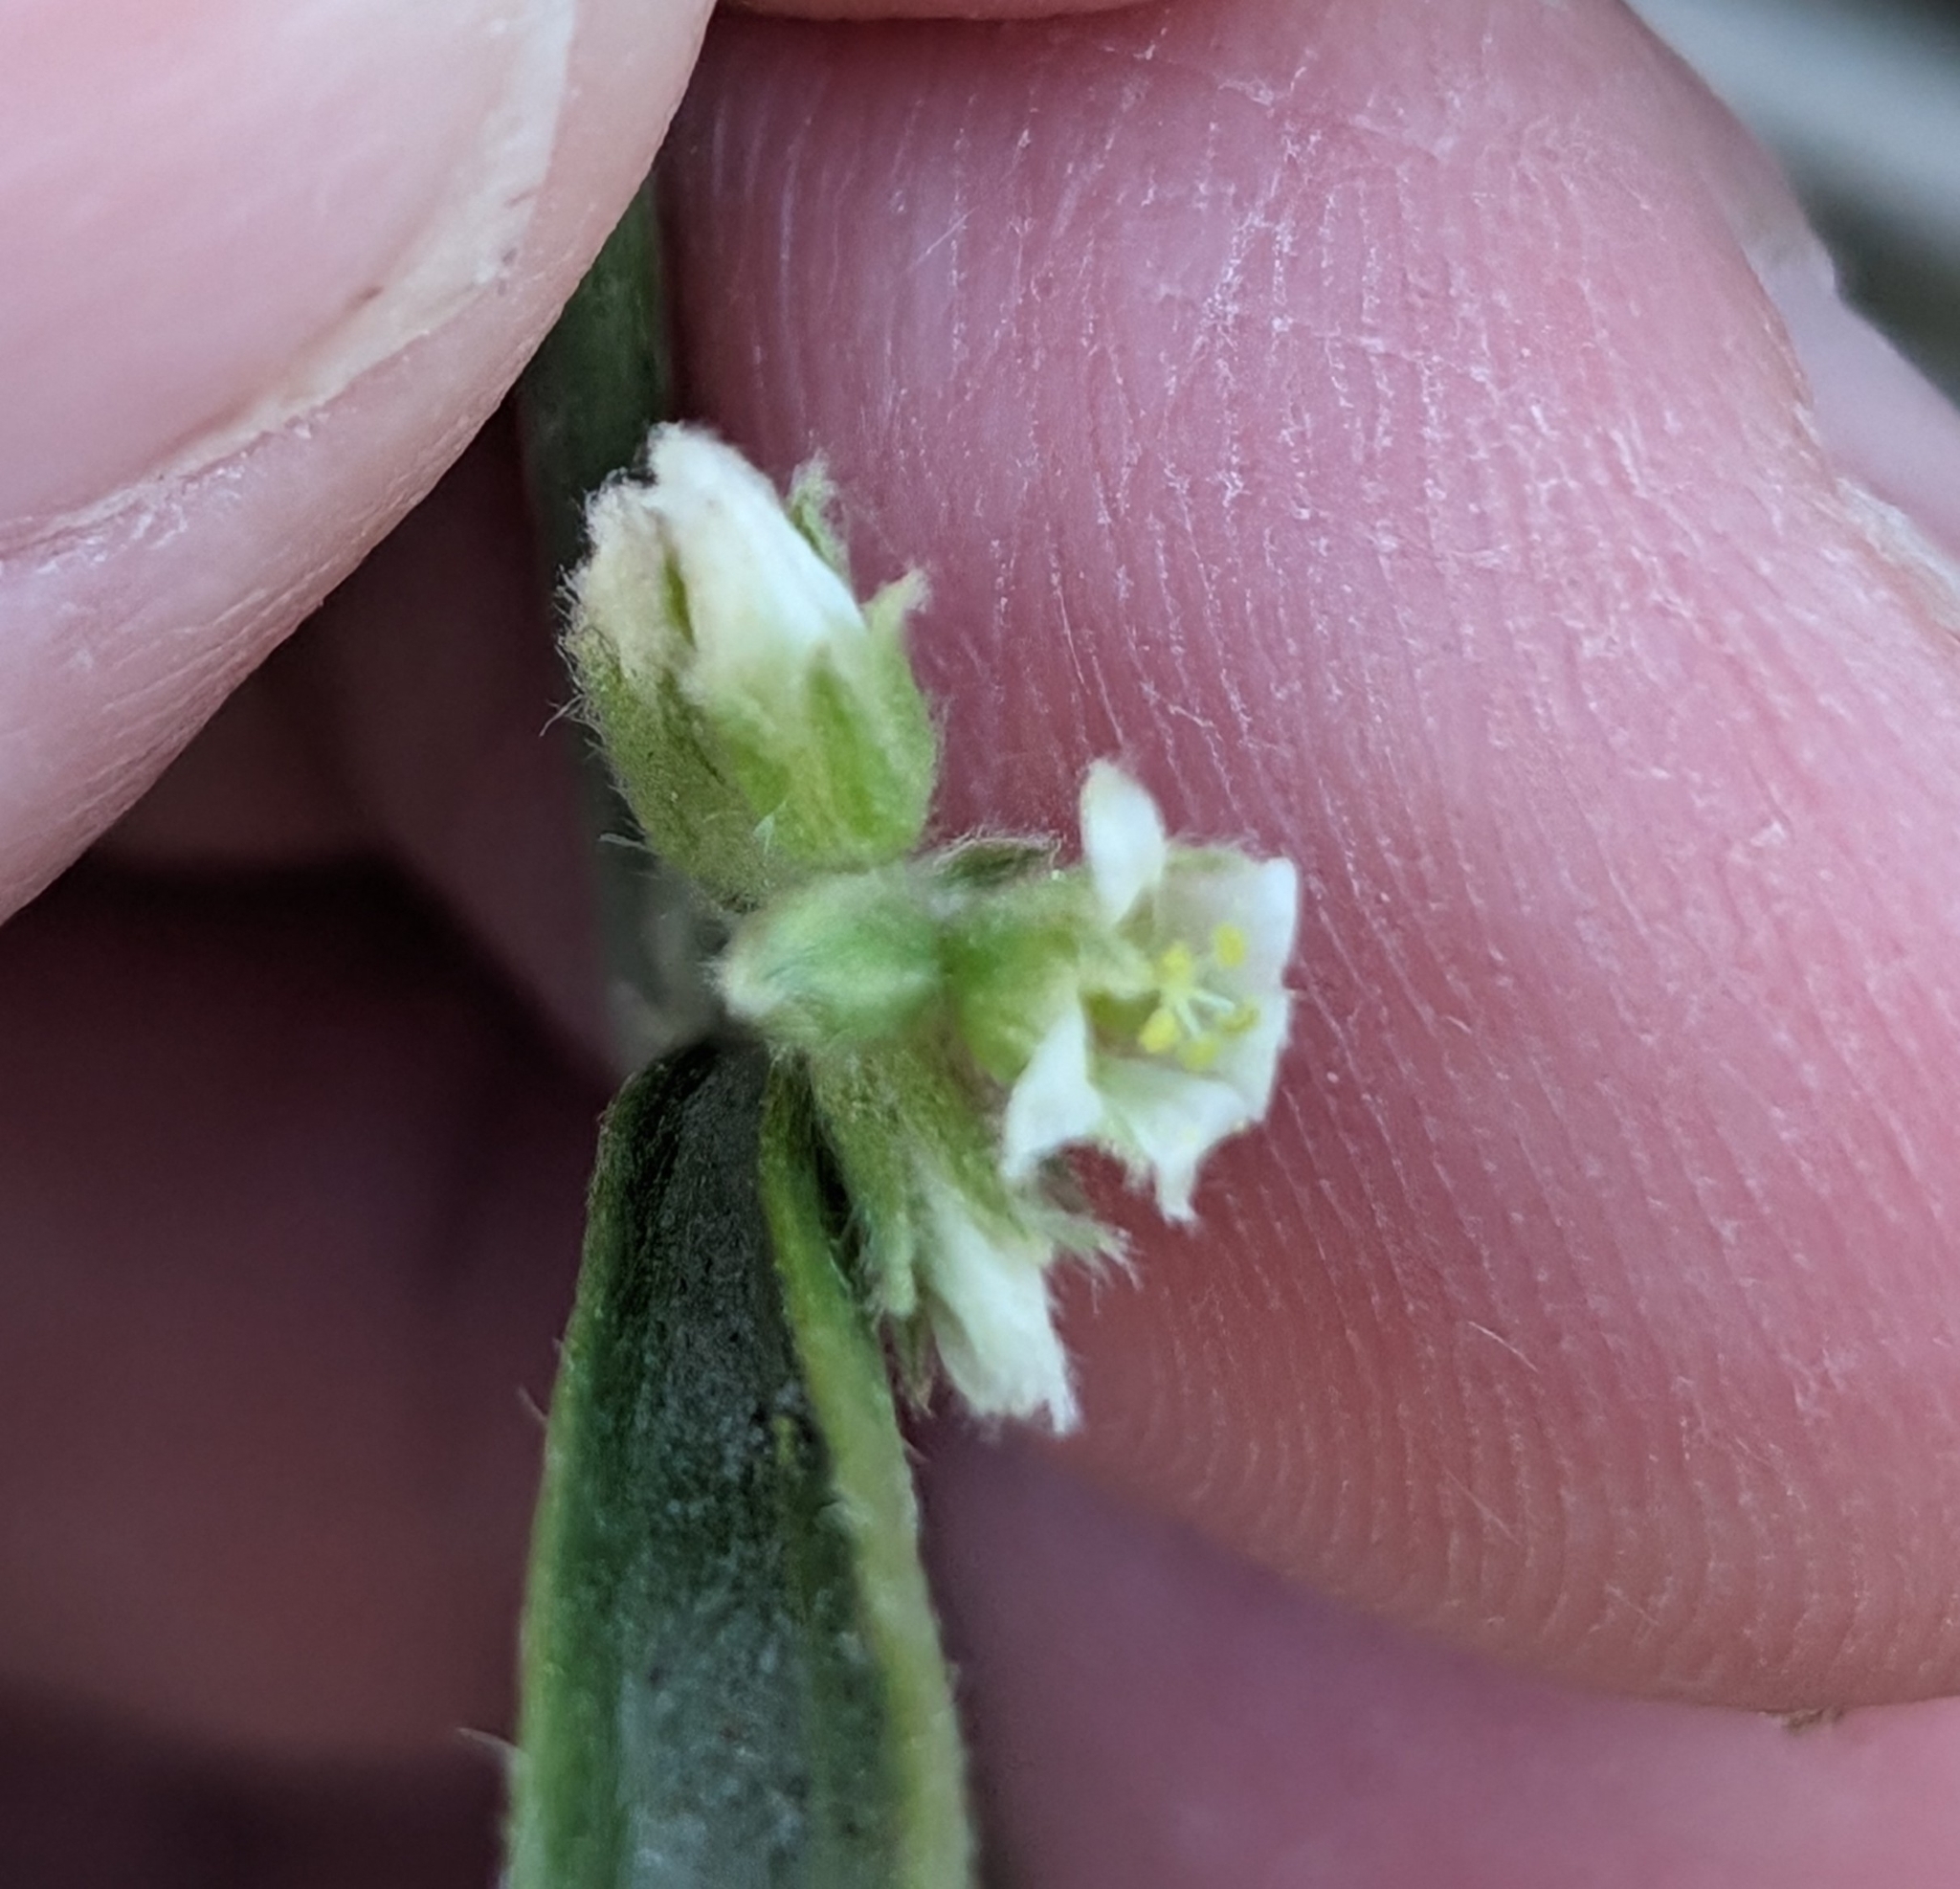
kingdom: Plantae
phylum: Tracheophyta
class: Magnoliopsida
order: Malpighiales
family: Euphorbiaceae
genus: Ditaxis
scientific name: Ditaxis lanceolata
